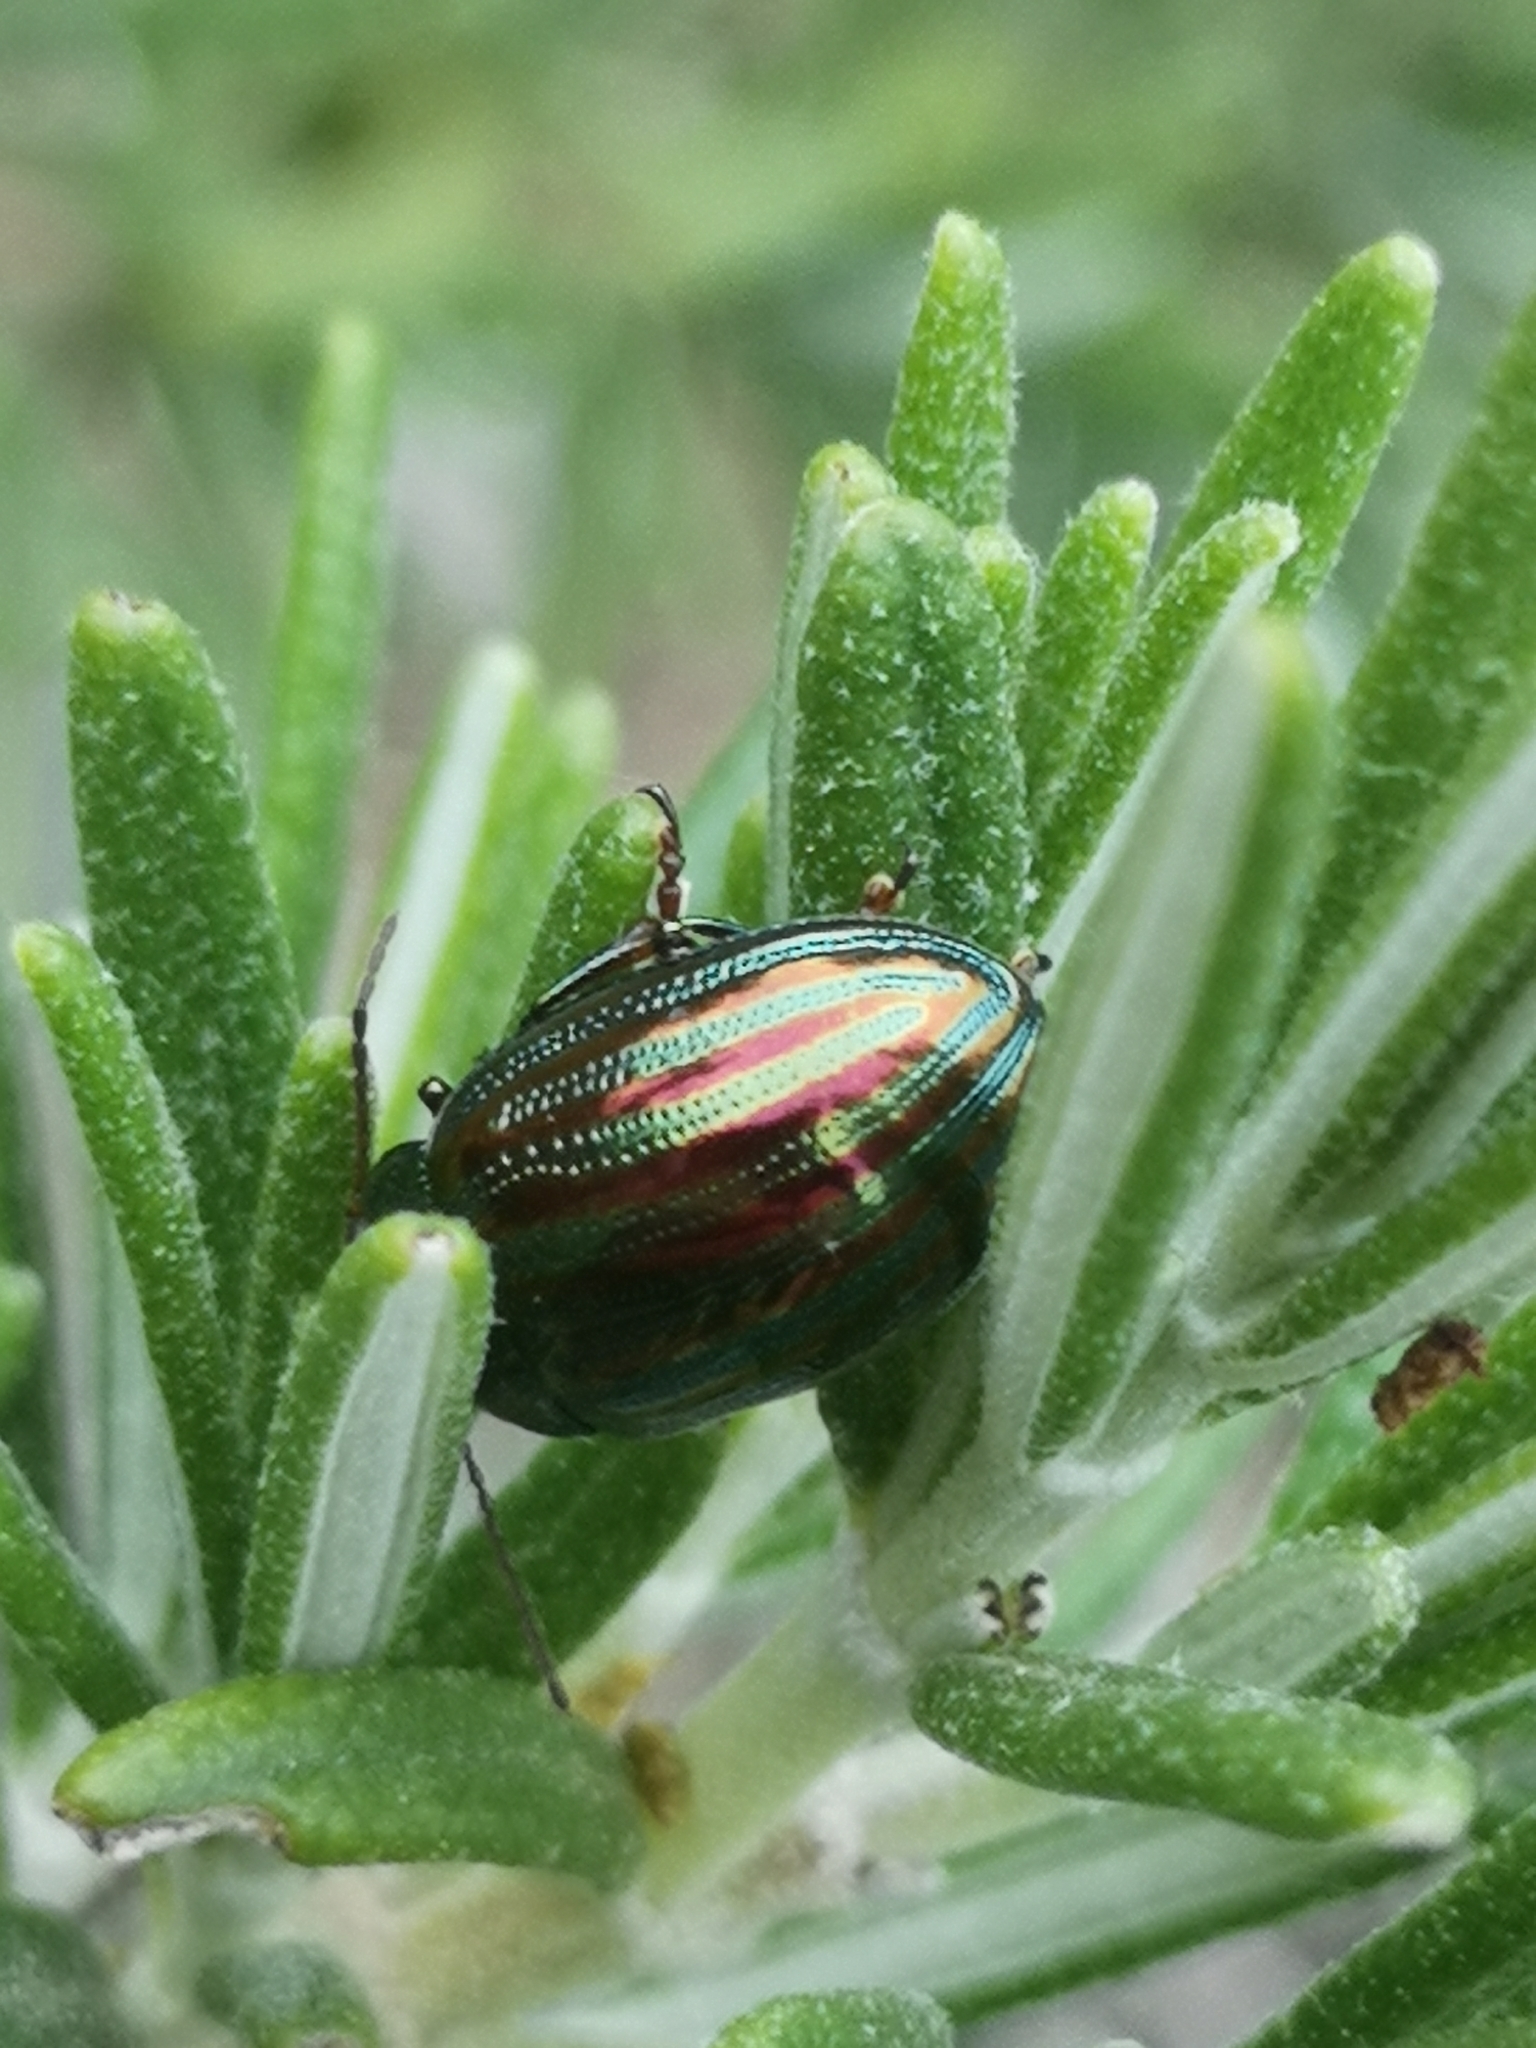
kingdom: Animalia
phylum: Arthropoda
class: Insecta
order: Coleoptera
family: Chrysomelidae
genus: Chrysolina
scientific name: Chrysolina americana
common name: Rosemary beetle
